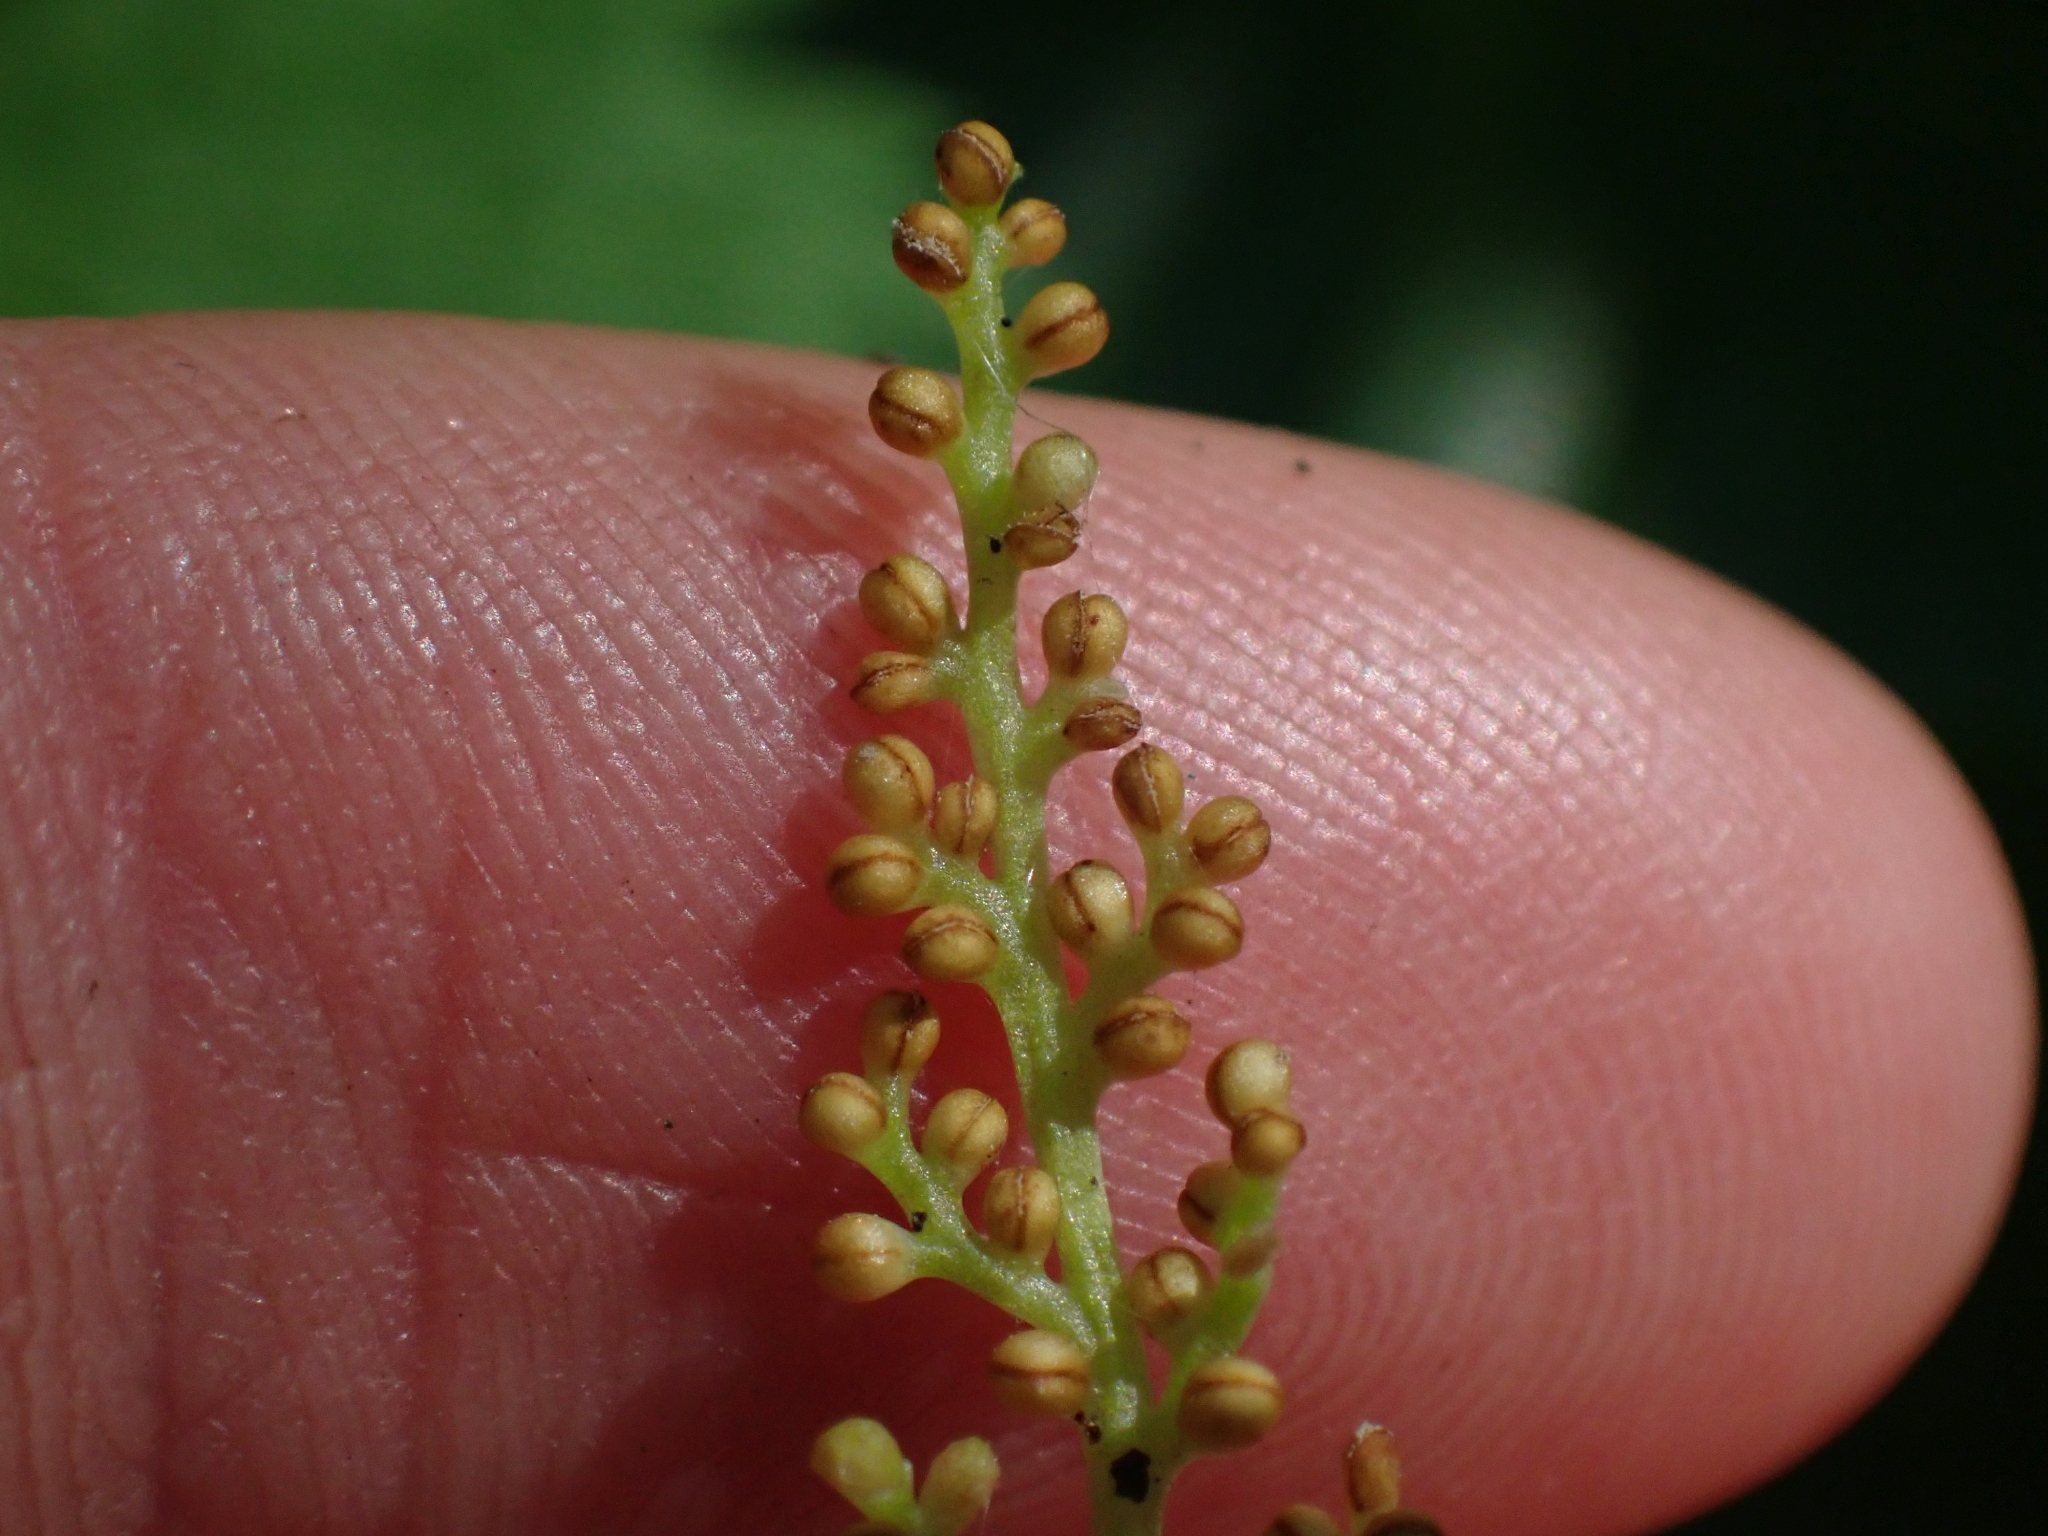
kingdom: Plantae
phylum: Tracheophyta
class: Polypodiopsida
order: Ophioglossales
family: Ophioglossaceae
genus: Botrypus
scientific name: Botrypus virginianus
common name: Common grapefern
